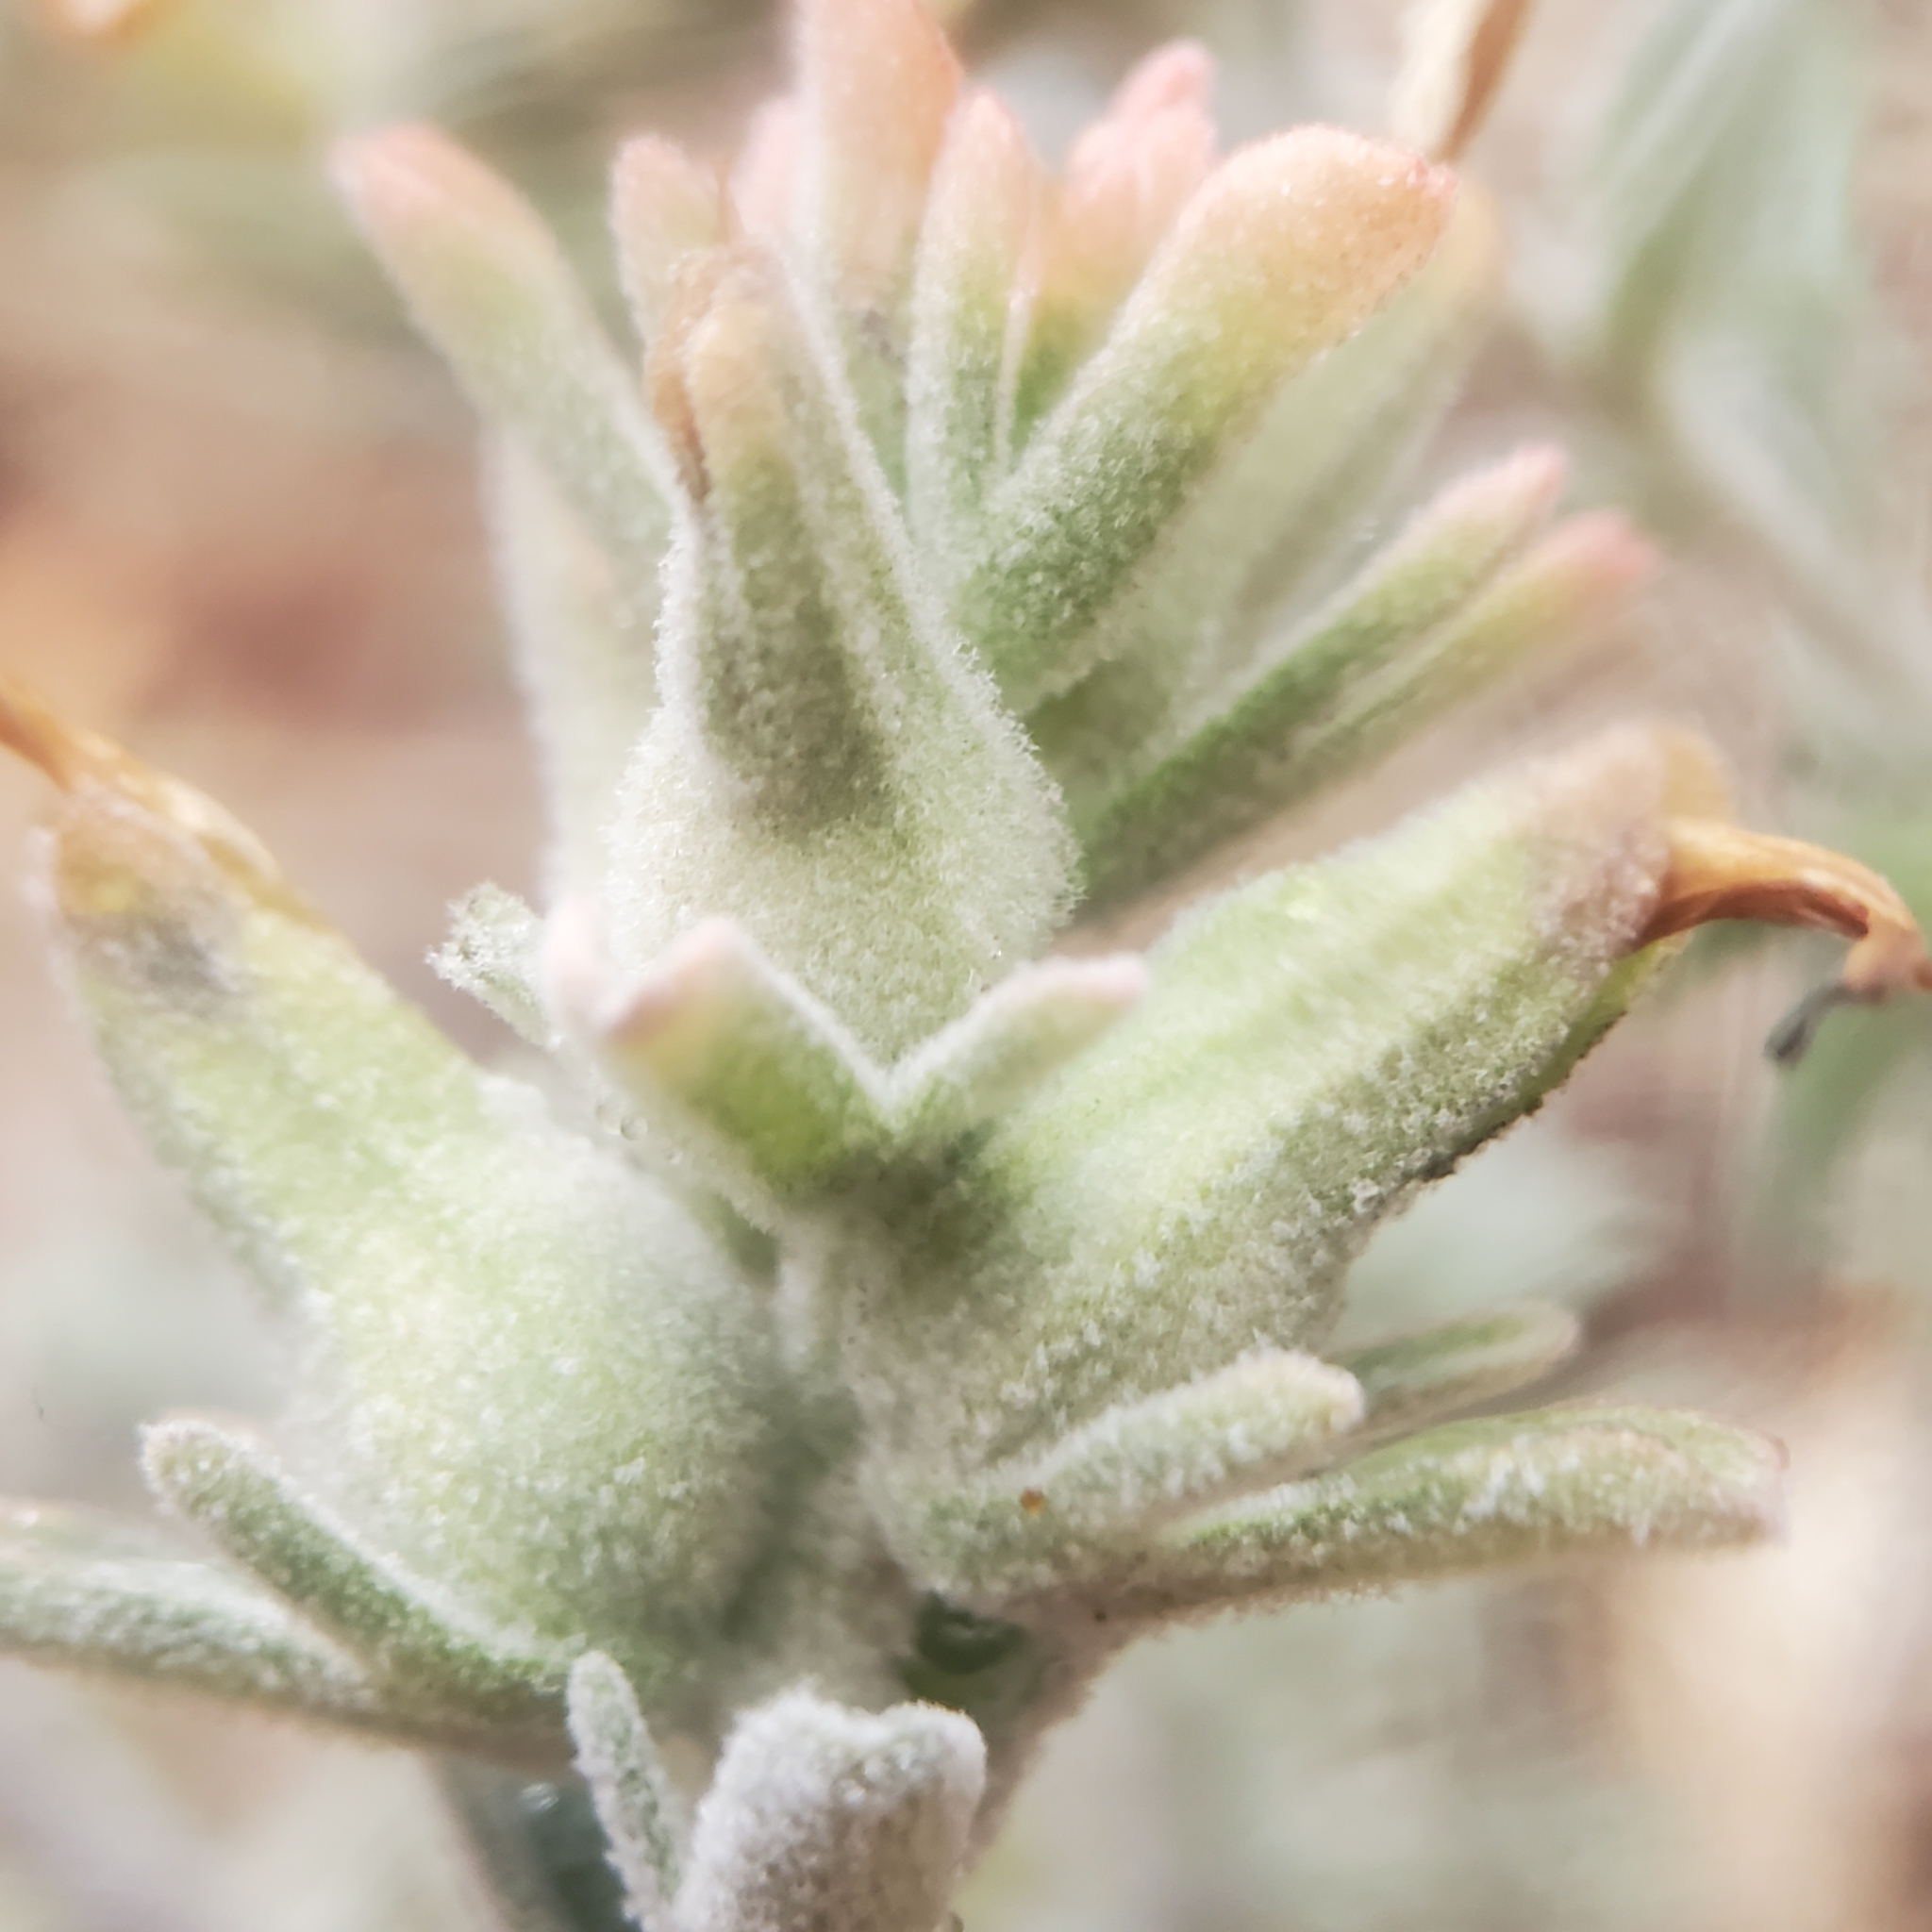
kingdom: Plantae
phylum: Tracheophyta
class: Magnoliopsida
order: Lamiales
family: Orobanchaceae
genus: Castilleja
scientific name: Castilleja foliolosa
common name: Woolly indian paintbrush
